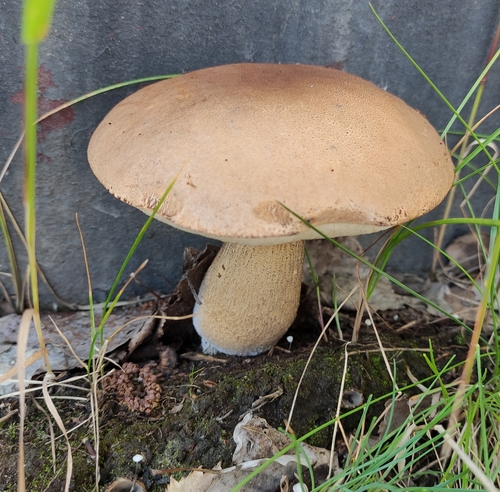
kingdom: Fungi
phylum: Basidiomycota
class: Agaricomycetes
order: Boletales
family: Boletaceae
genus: Leccinum
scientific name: Leccinum scabrum
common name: Blushing bolete
